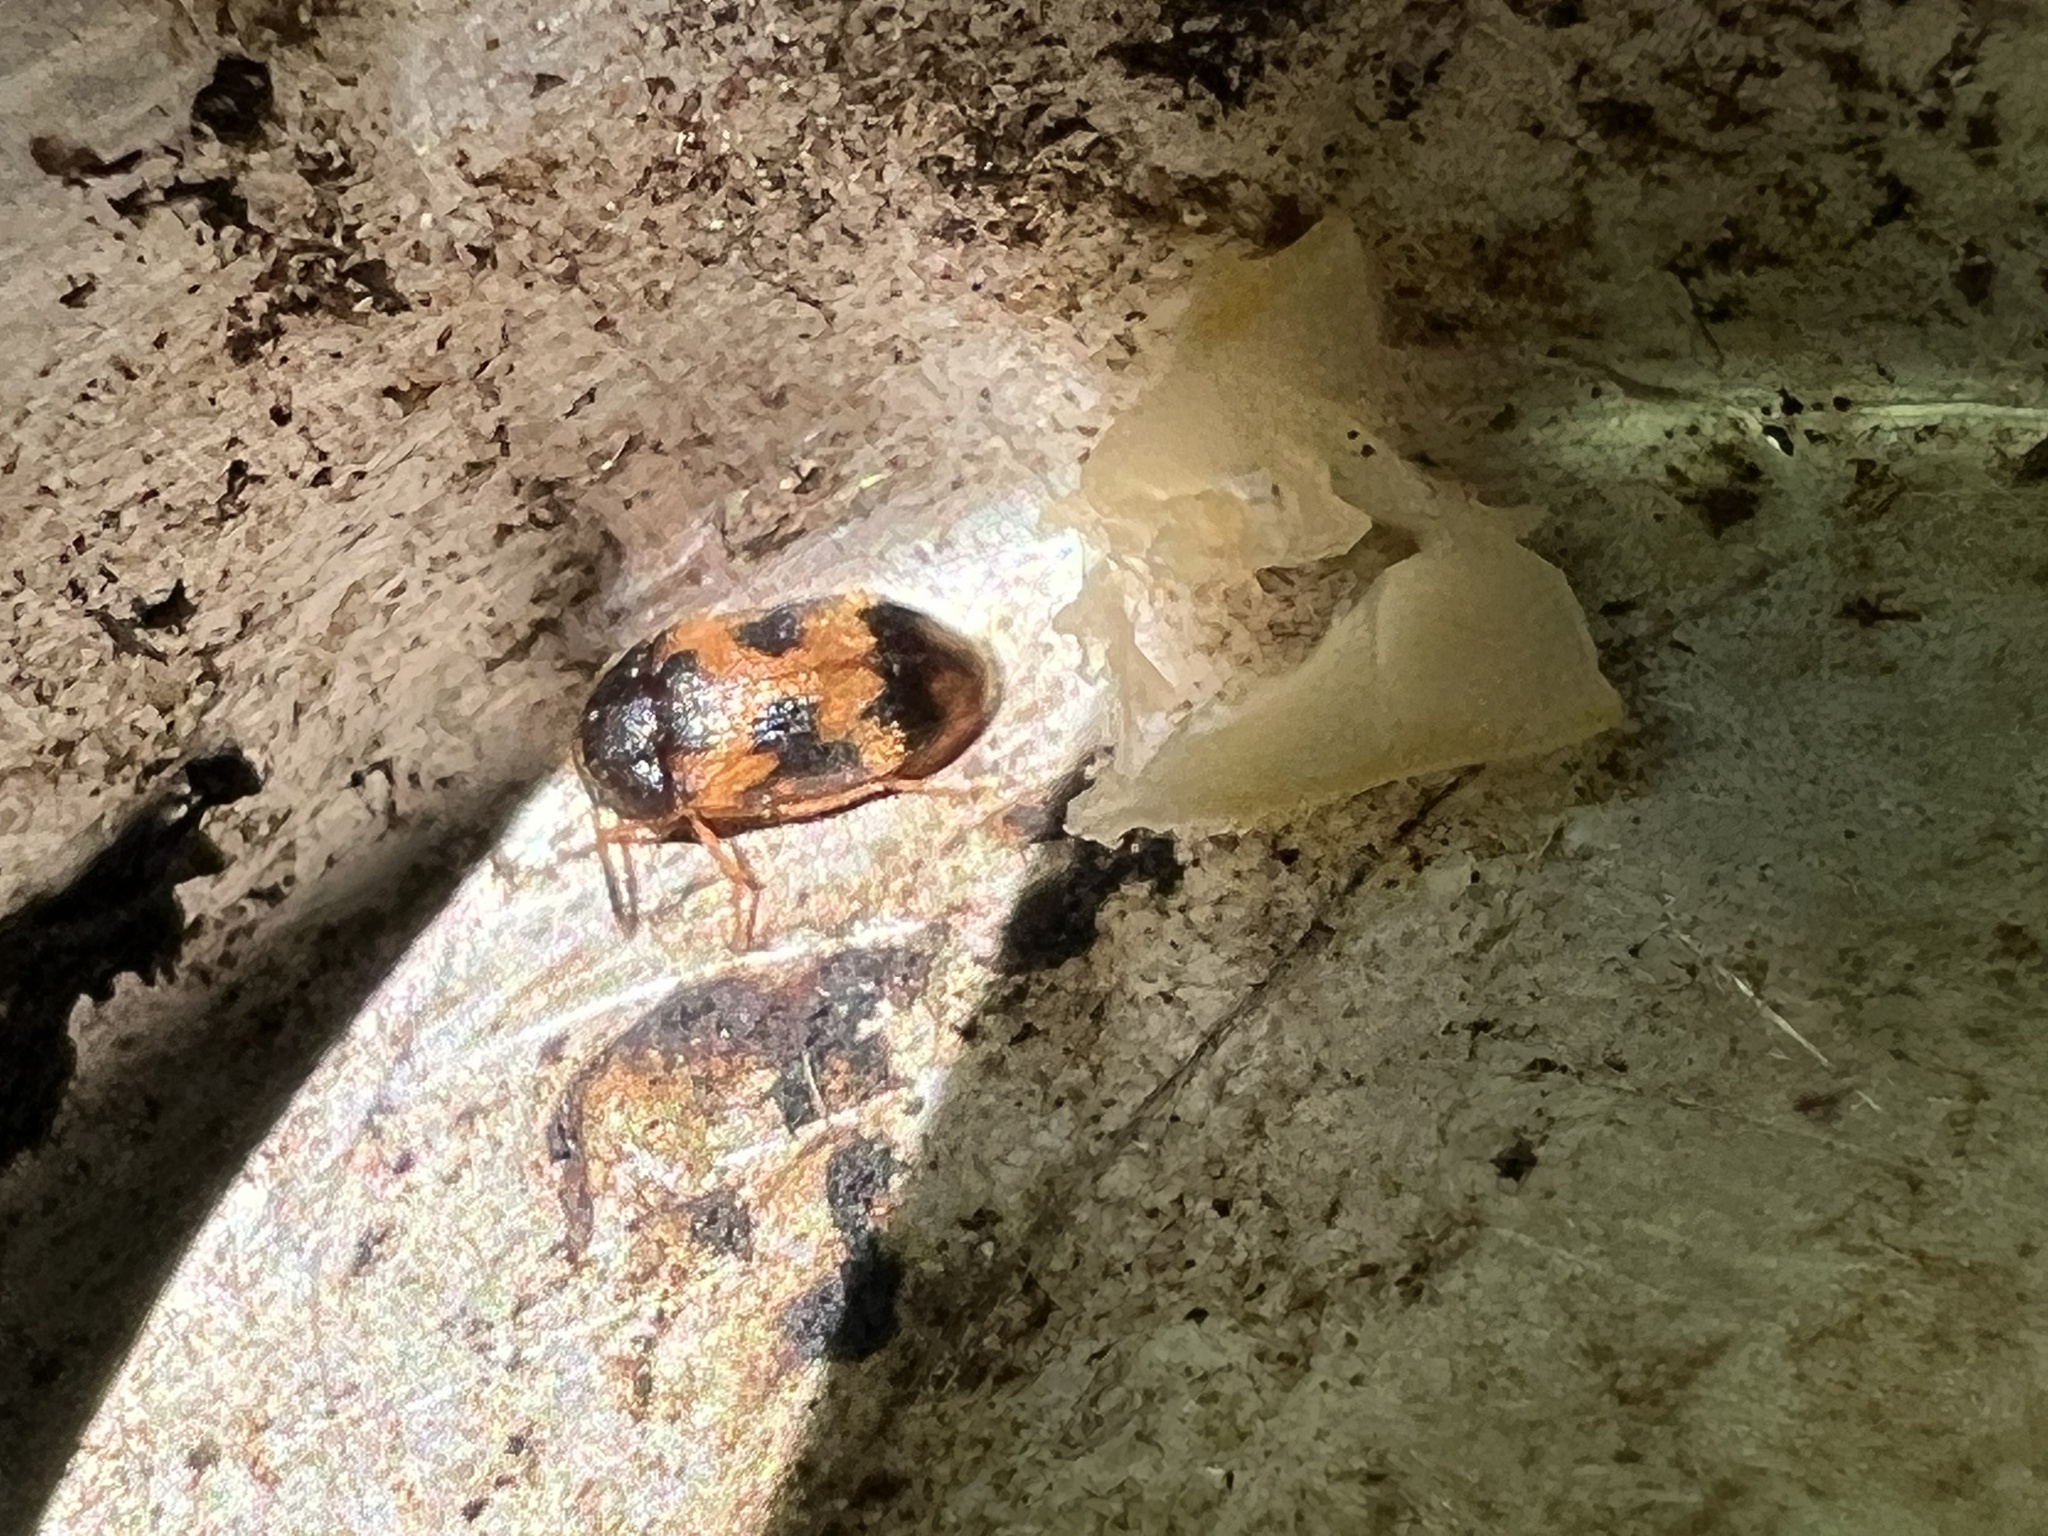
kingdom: Animalia
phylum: Arthropoda
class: Insecta
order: Coleoptera
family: Mycetophagidae
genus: Mycetophagus
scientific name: Mycetophagus flexuosus
